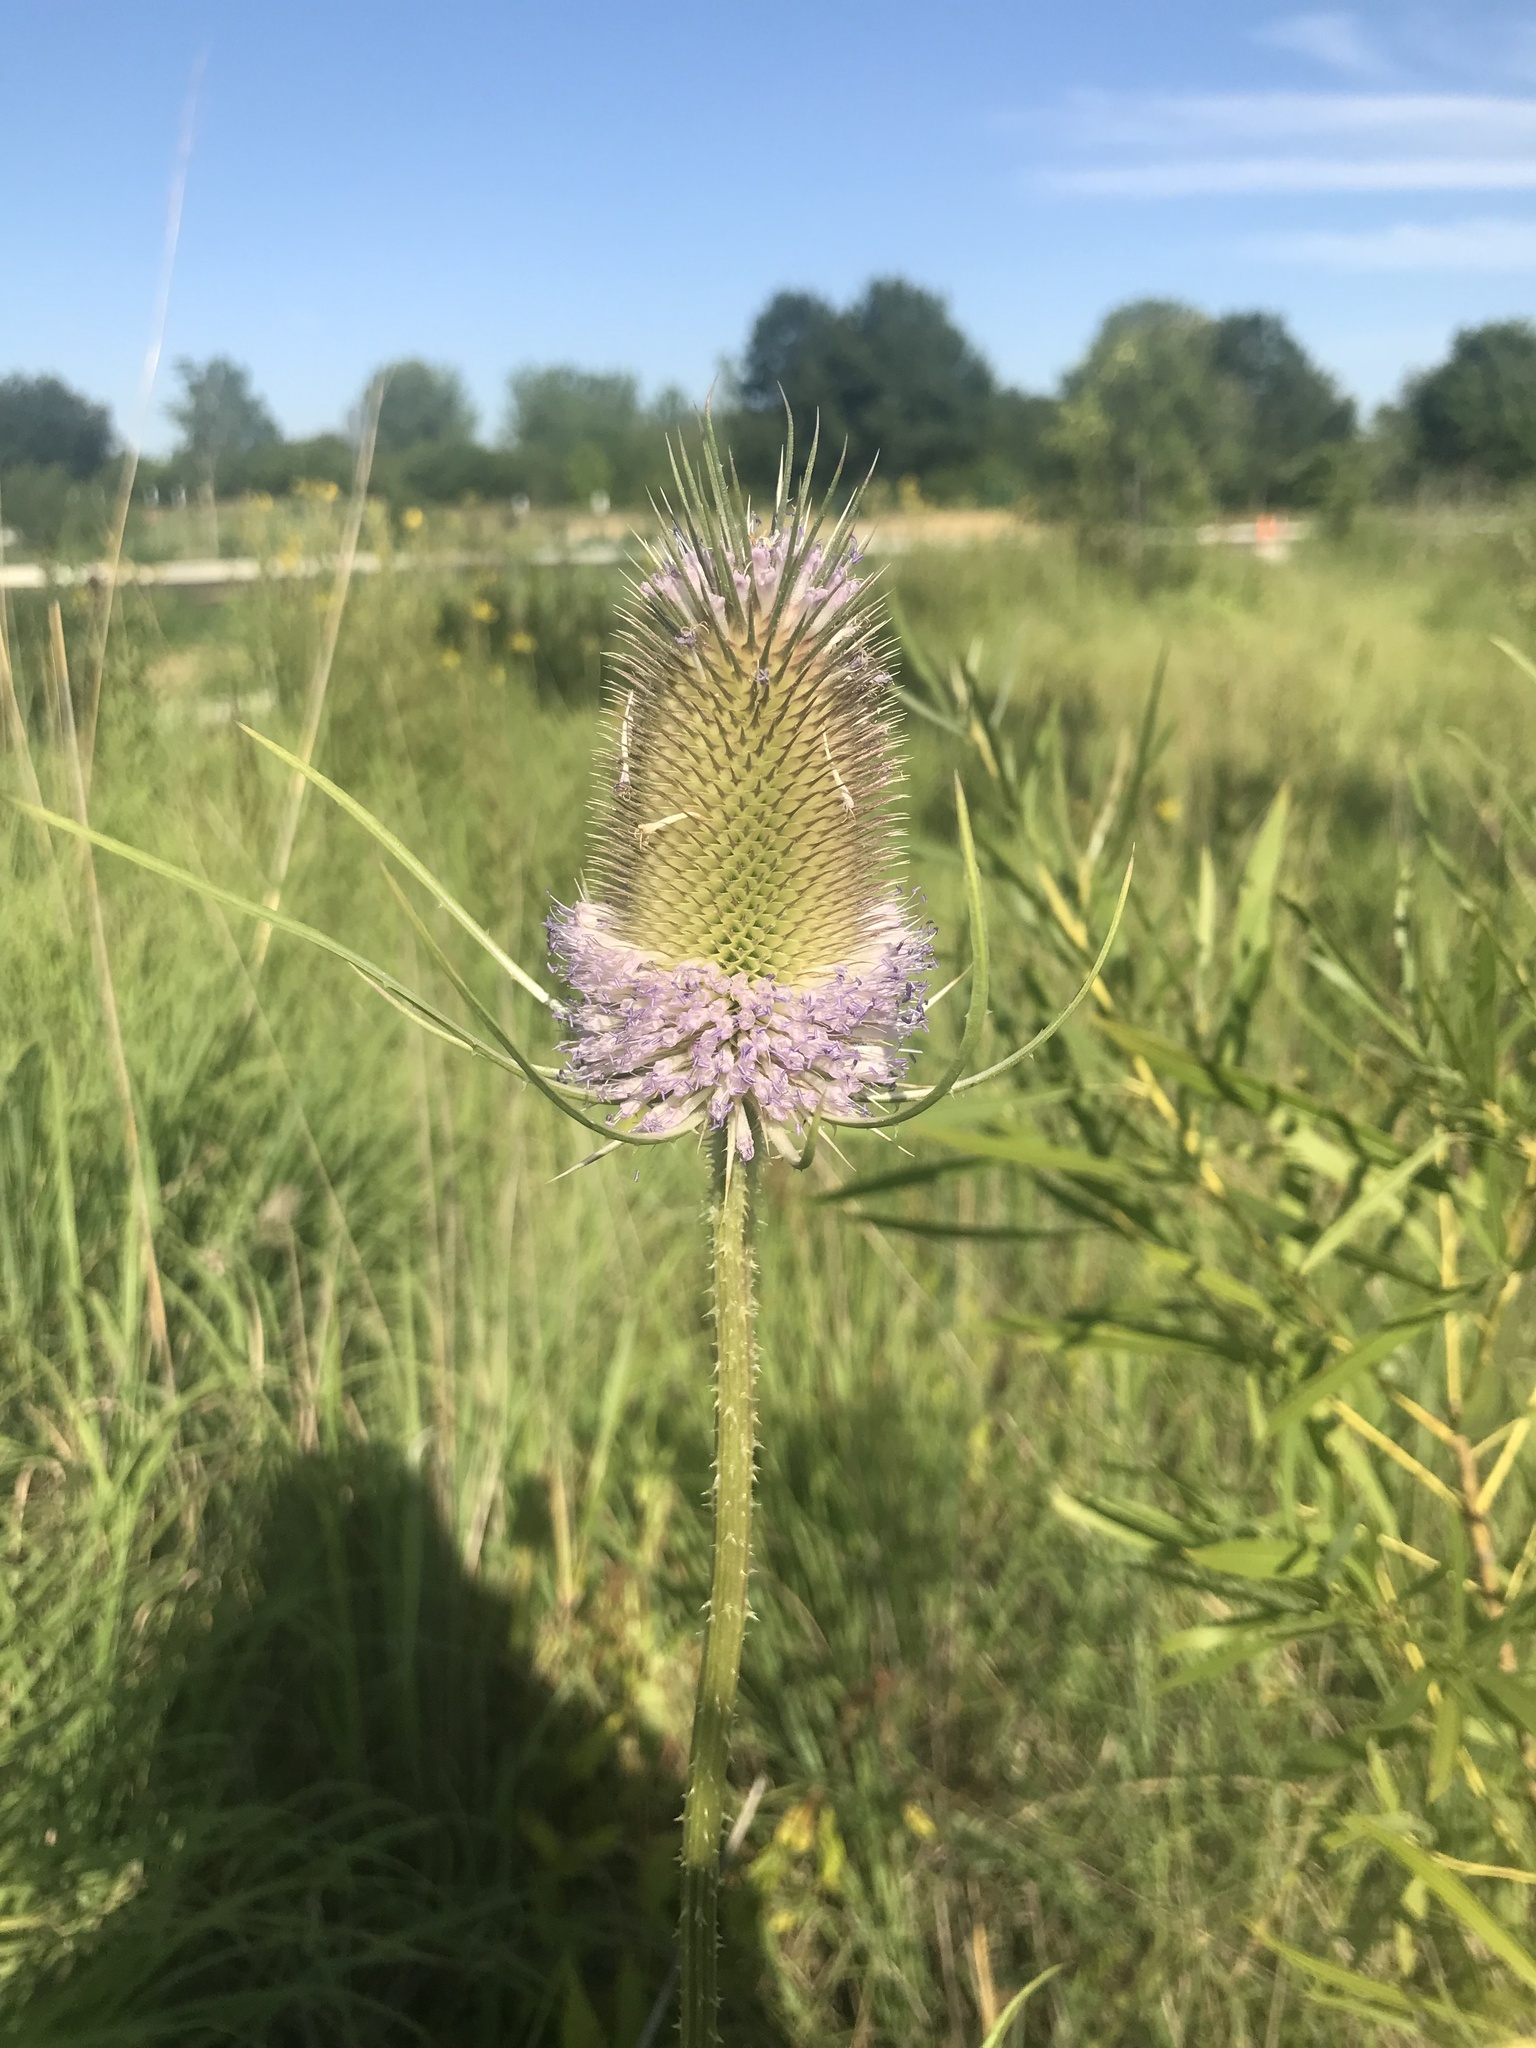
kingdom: Plantae
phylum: Tracheophyta
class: Magnoliopsida
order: Dipsacales
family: Caprifoliaceae
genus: Dipsacus
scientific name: Dipsacus fullonum
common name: Teasel
